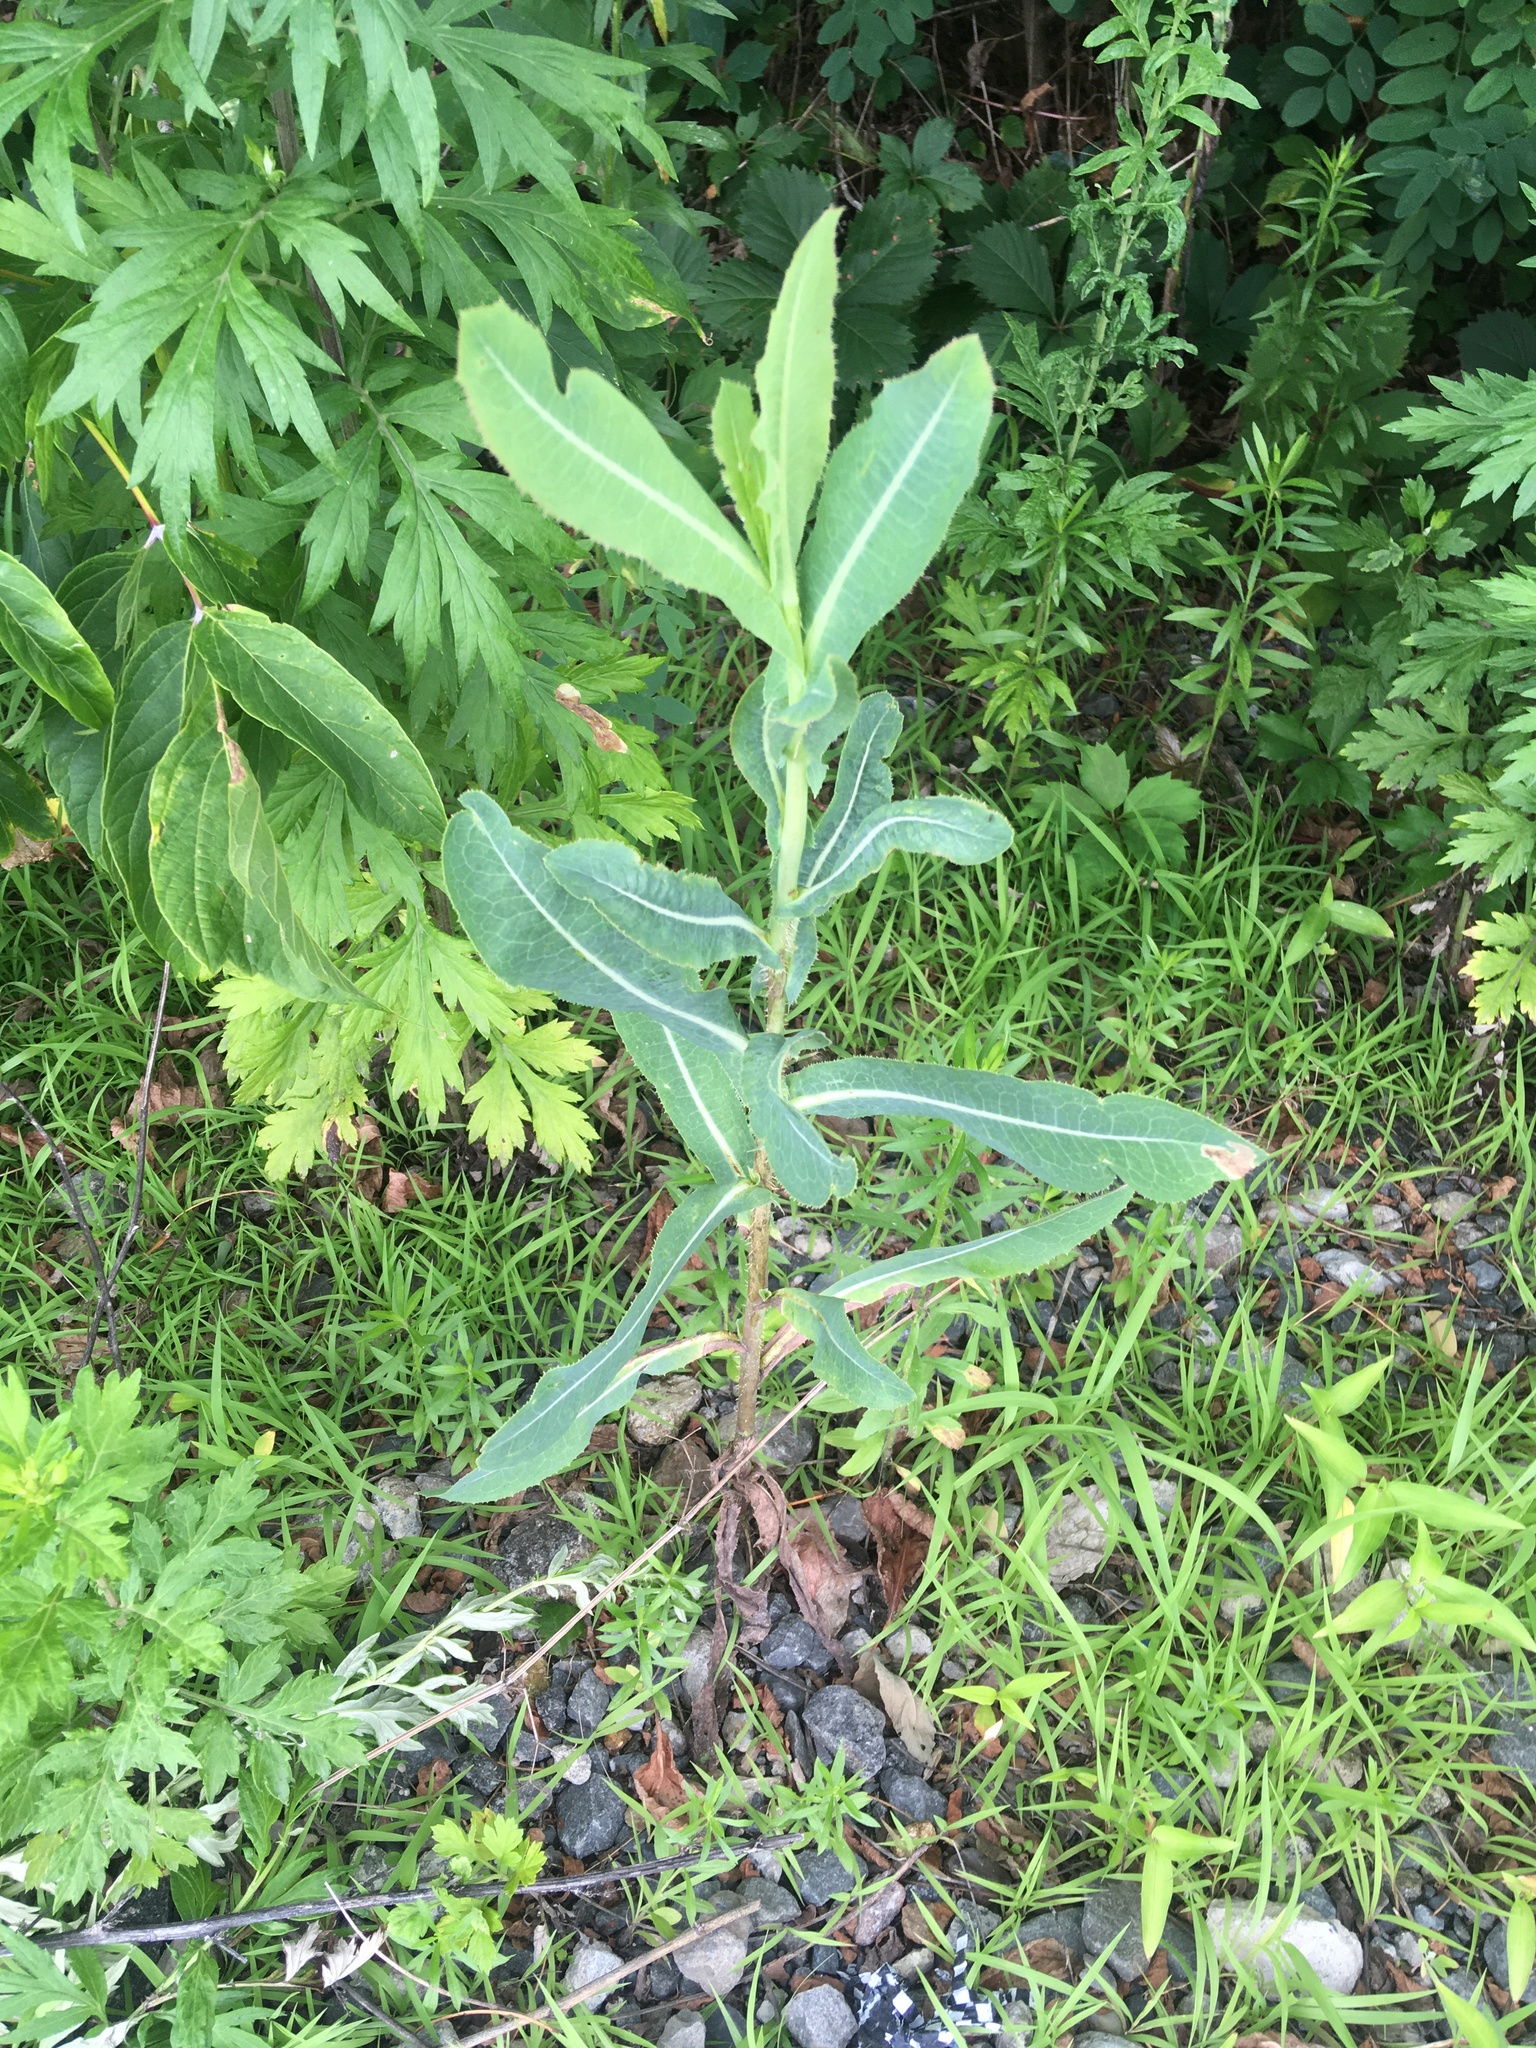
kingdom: Plantae
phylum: Tracheophyta
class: Magnoliopsida
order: Asterales
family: Asteraceae
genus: Lactuca
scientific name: Lactuca serriola
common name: Prickly lettuce
